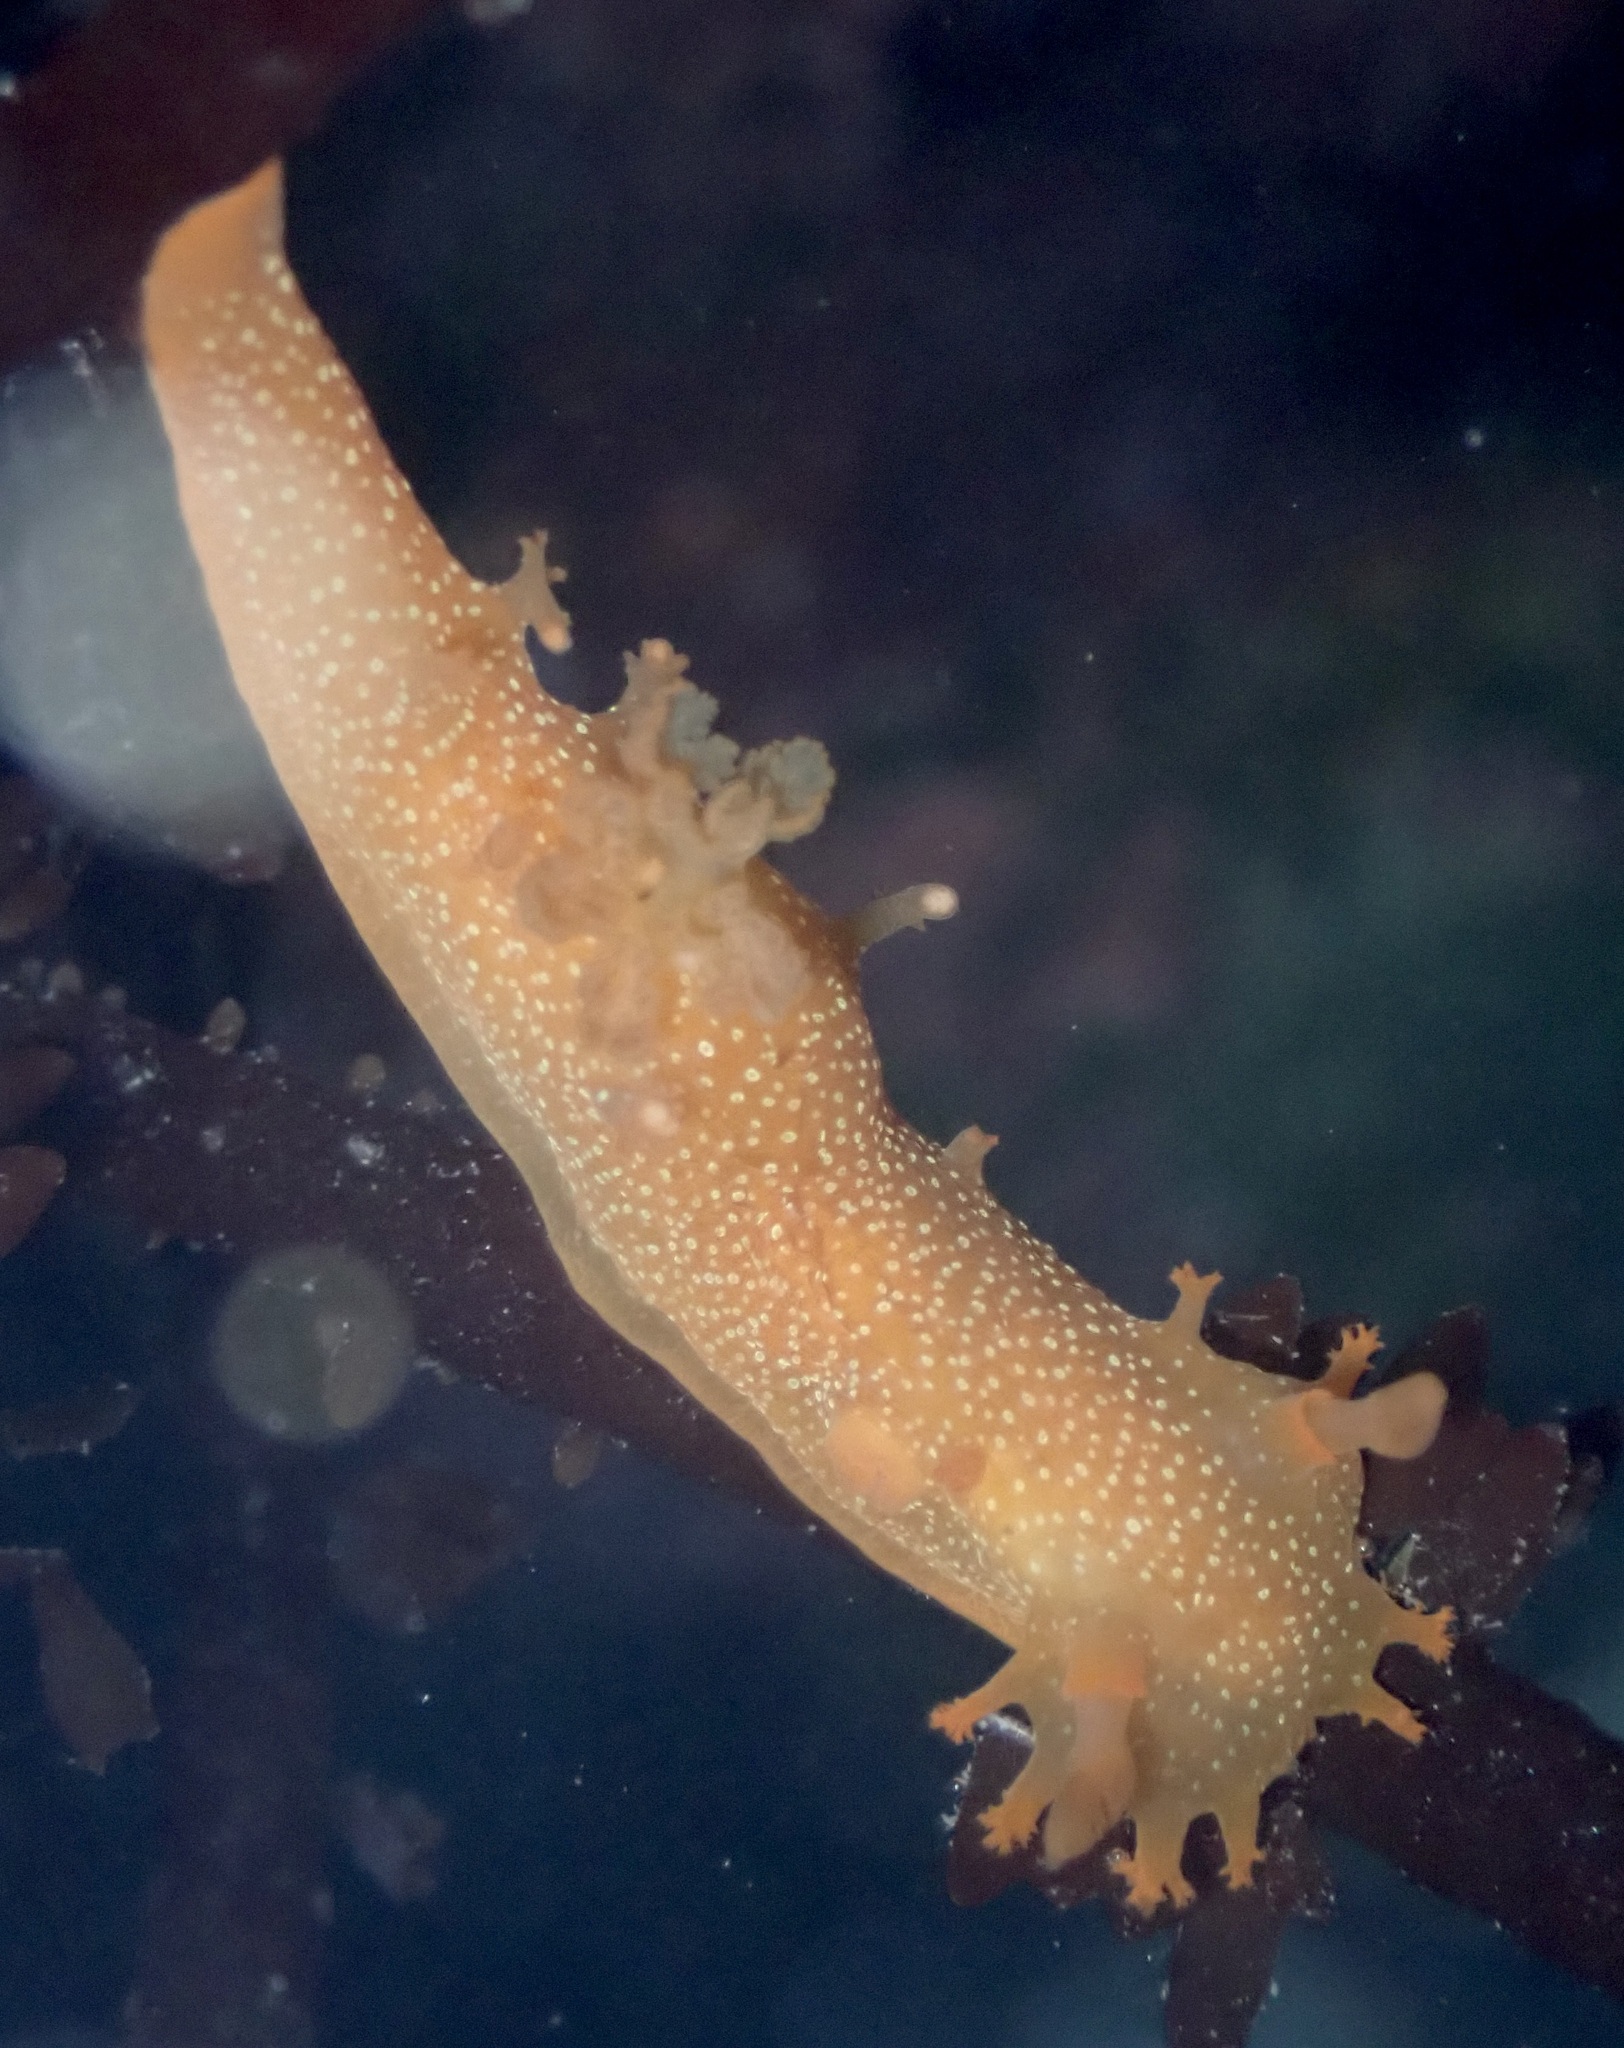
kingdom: Animalia
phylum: Mollusca
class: Gastropoda
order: Nudibranchia
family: Polyceridae
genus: Triopha
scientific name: Triopha maculata
